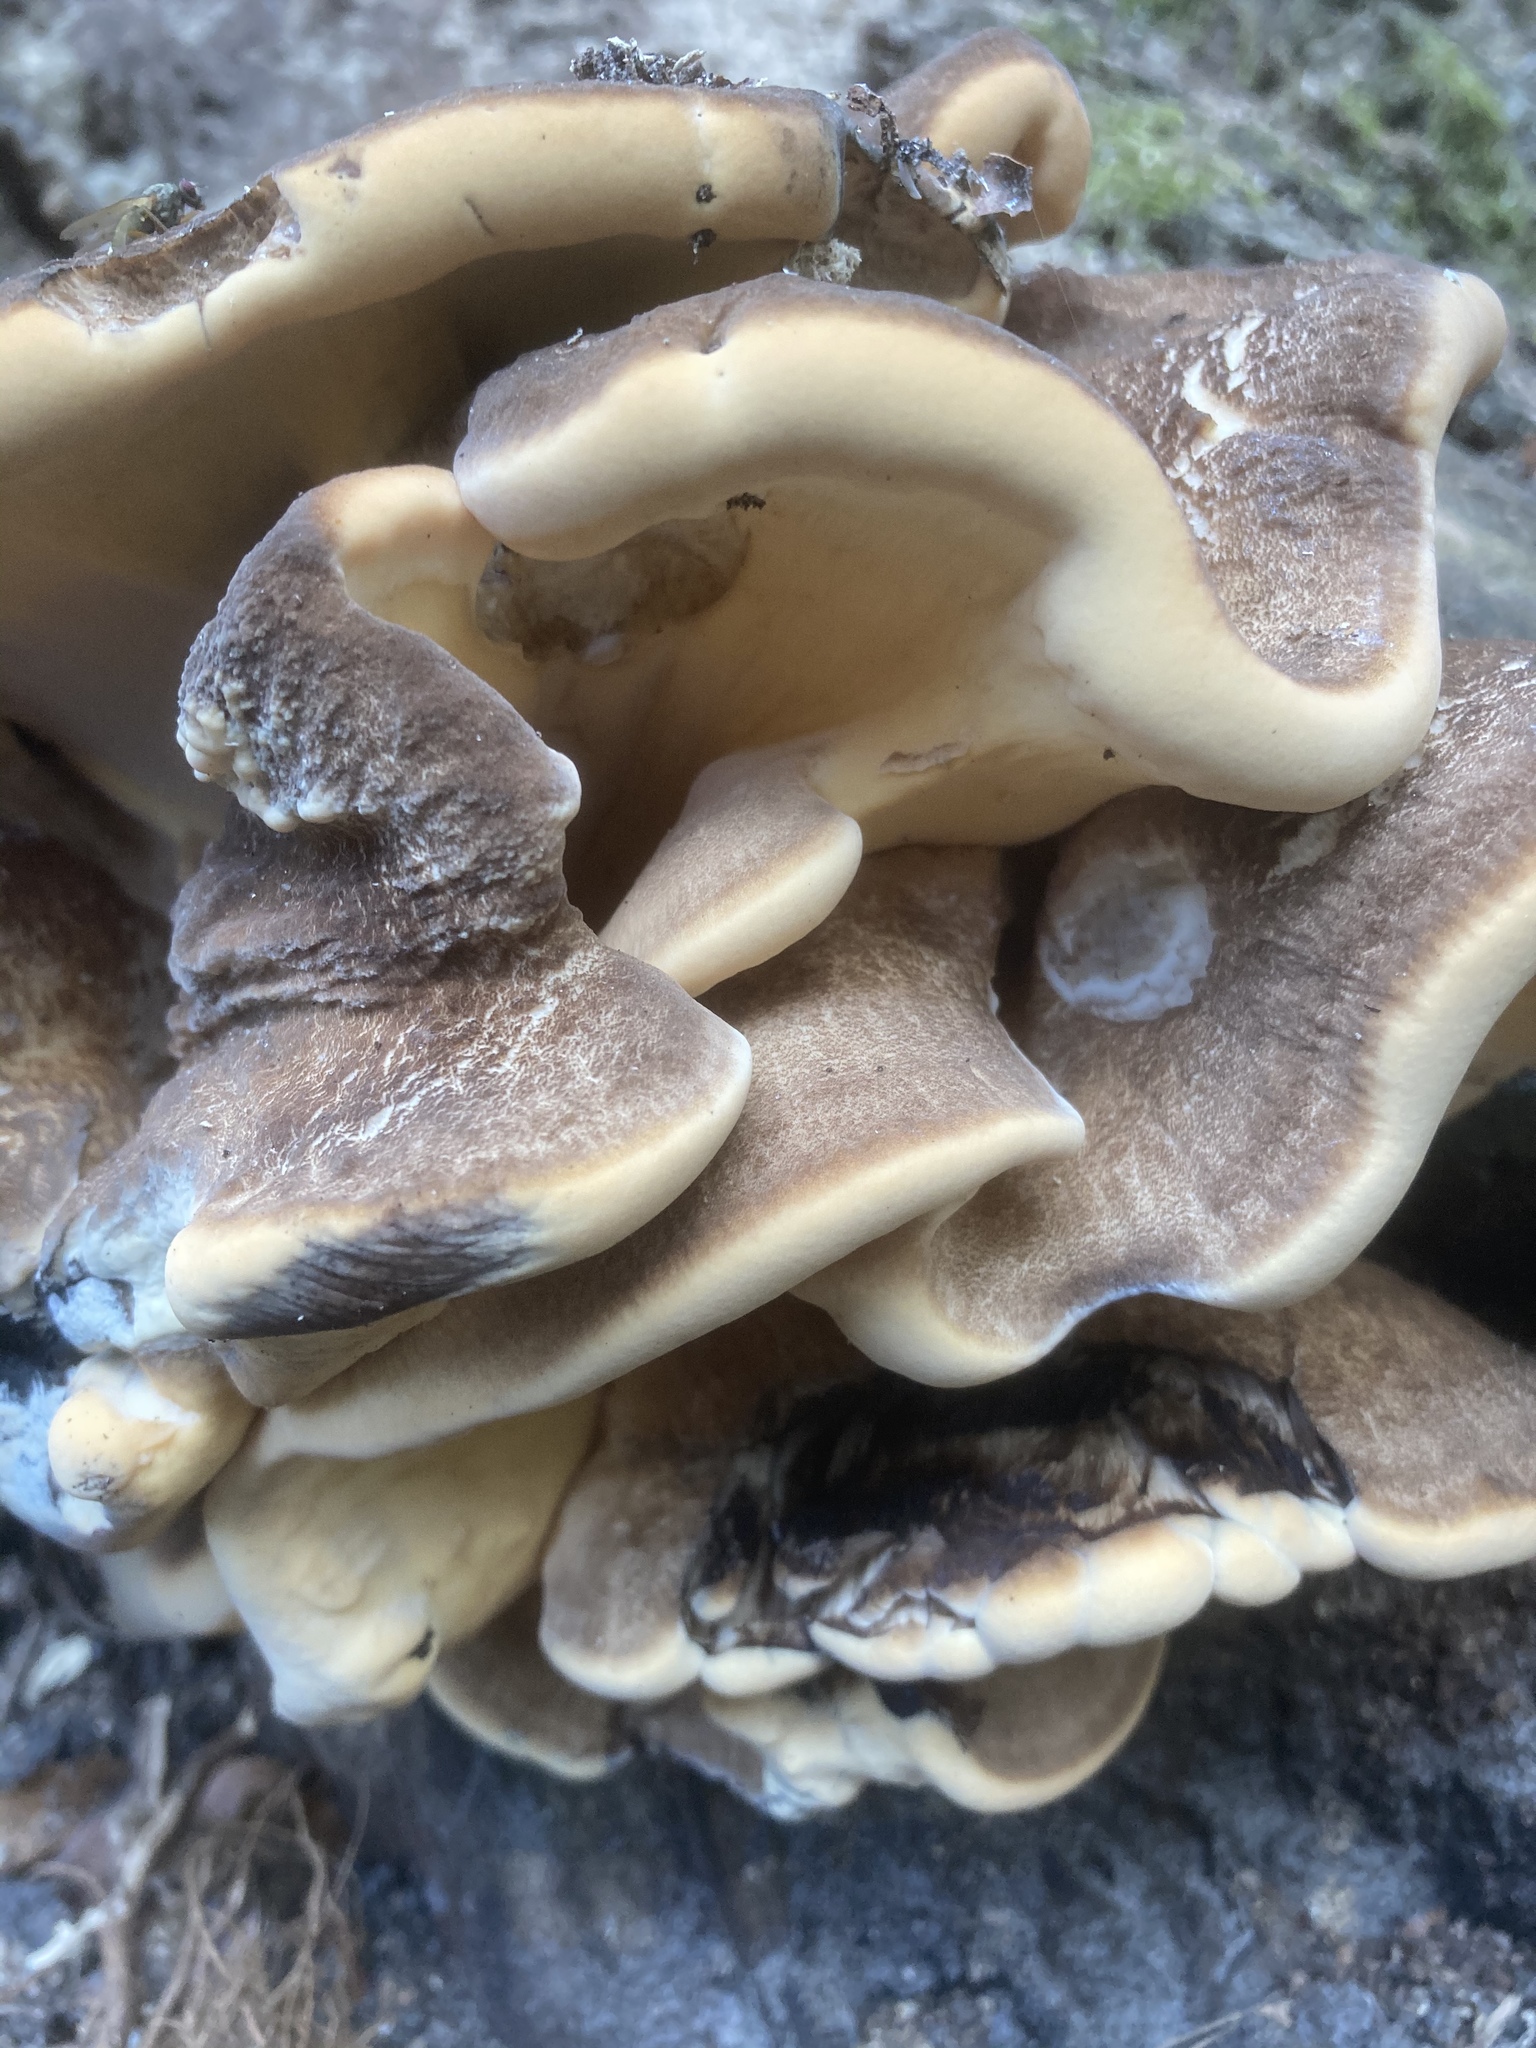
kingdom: Fungi
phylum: Basidiomycota
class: Agaricomycetes
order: Polyporales
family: Meripilaceae
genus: Meripilus
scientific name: Meripilus giganteus
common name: Giant polypore
